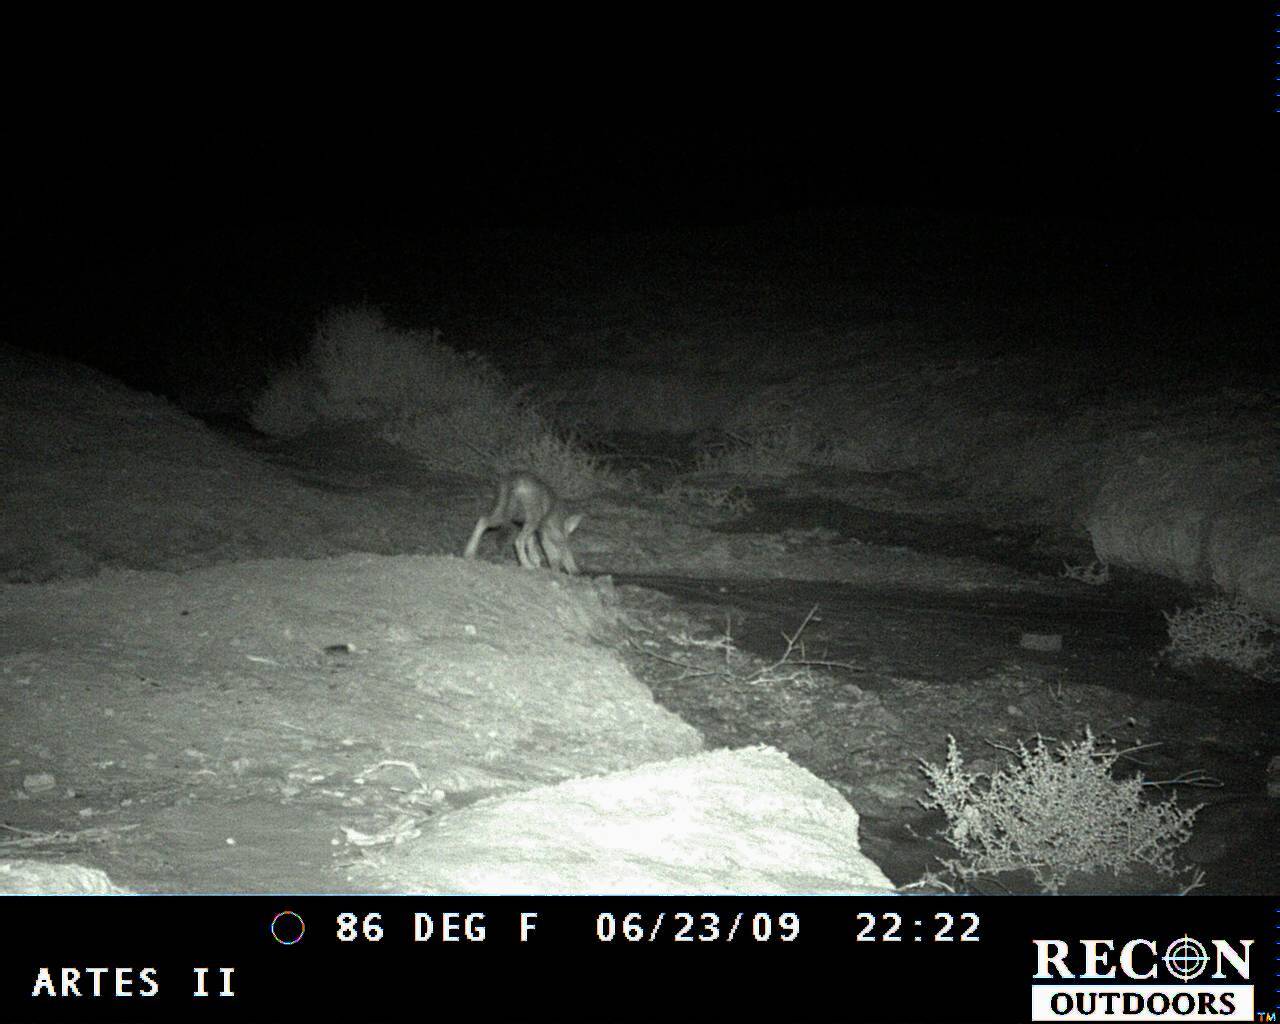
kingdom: Animalia
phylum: Chordata
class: Mammalia
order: Carnivora
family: Canidae
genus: Canis
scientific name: Canis latrans
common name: Coyote
